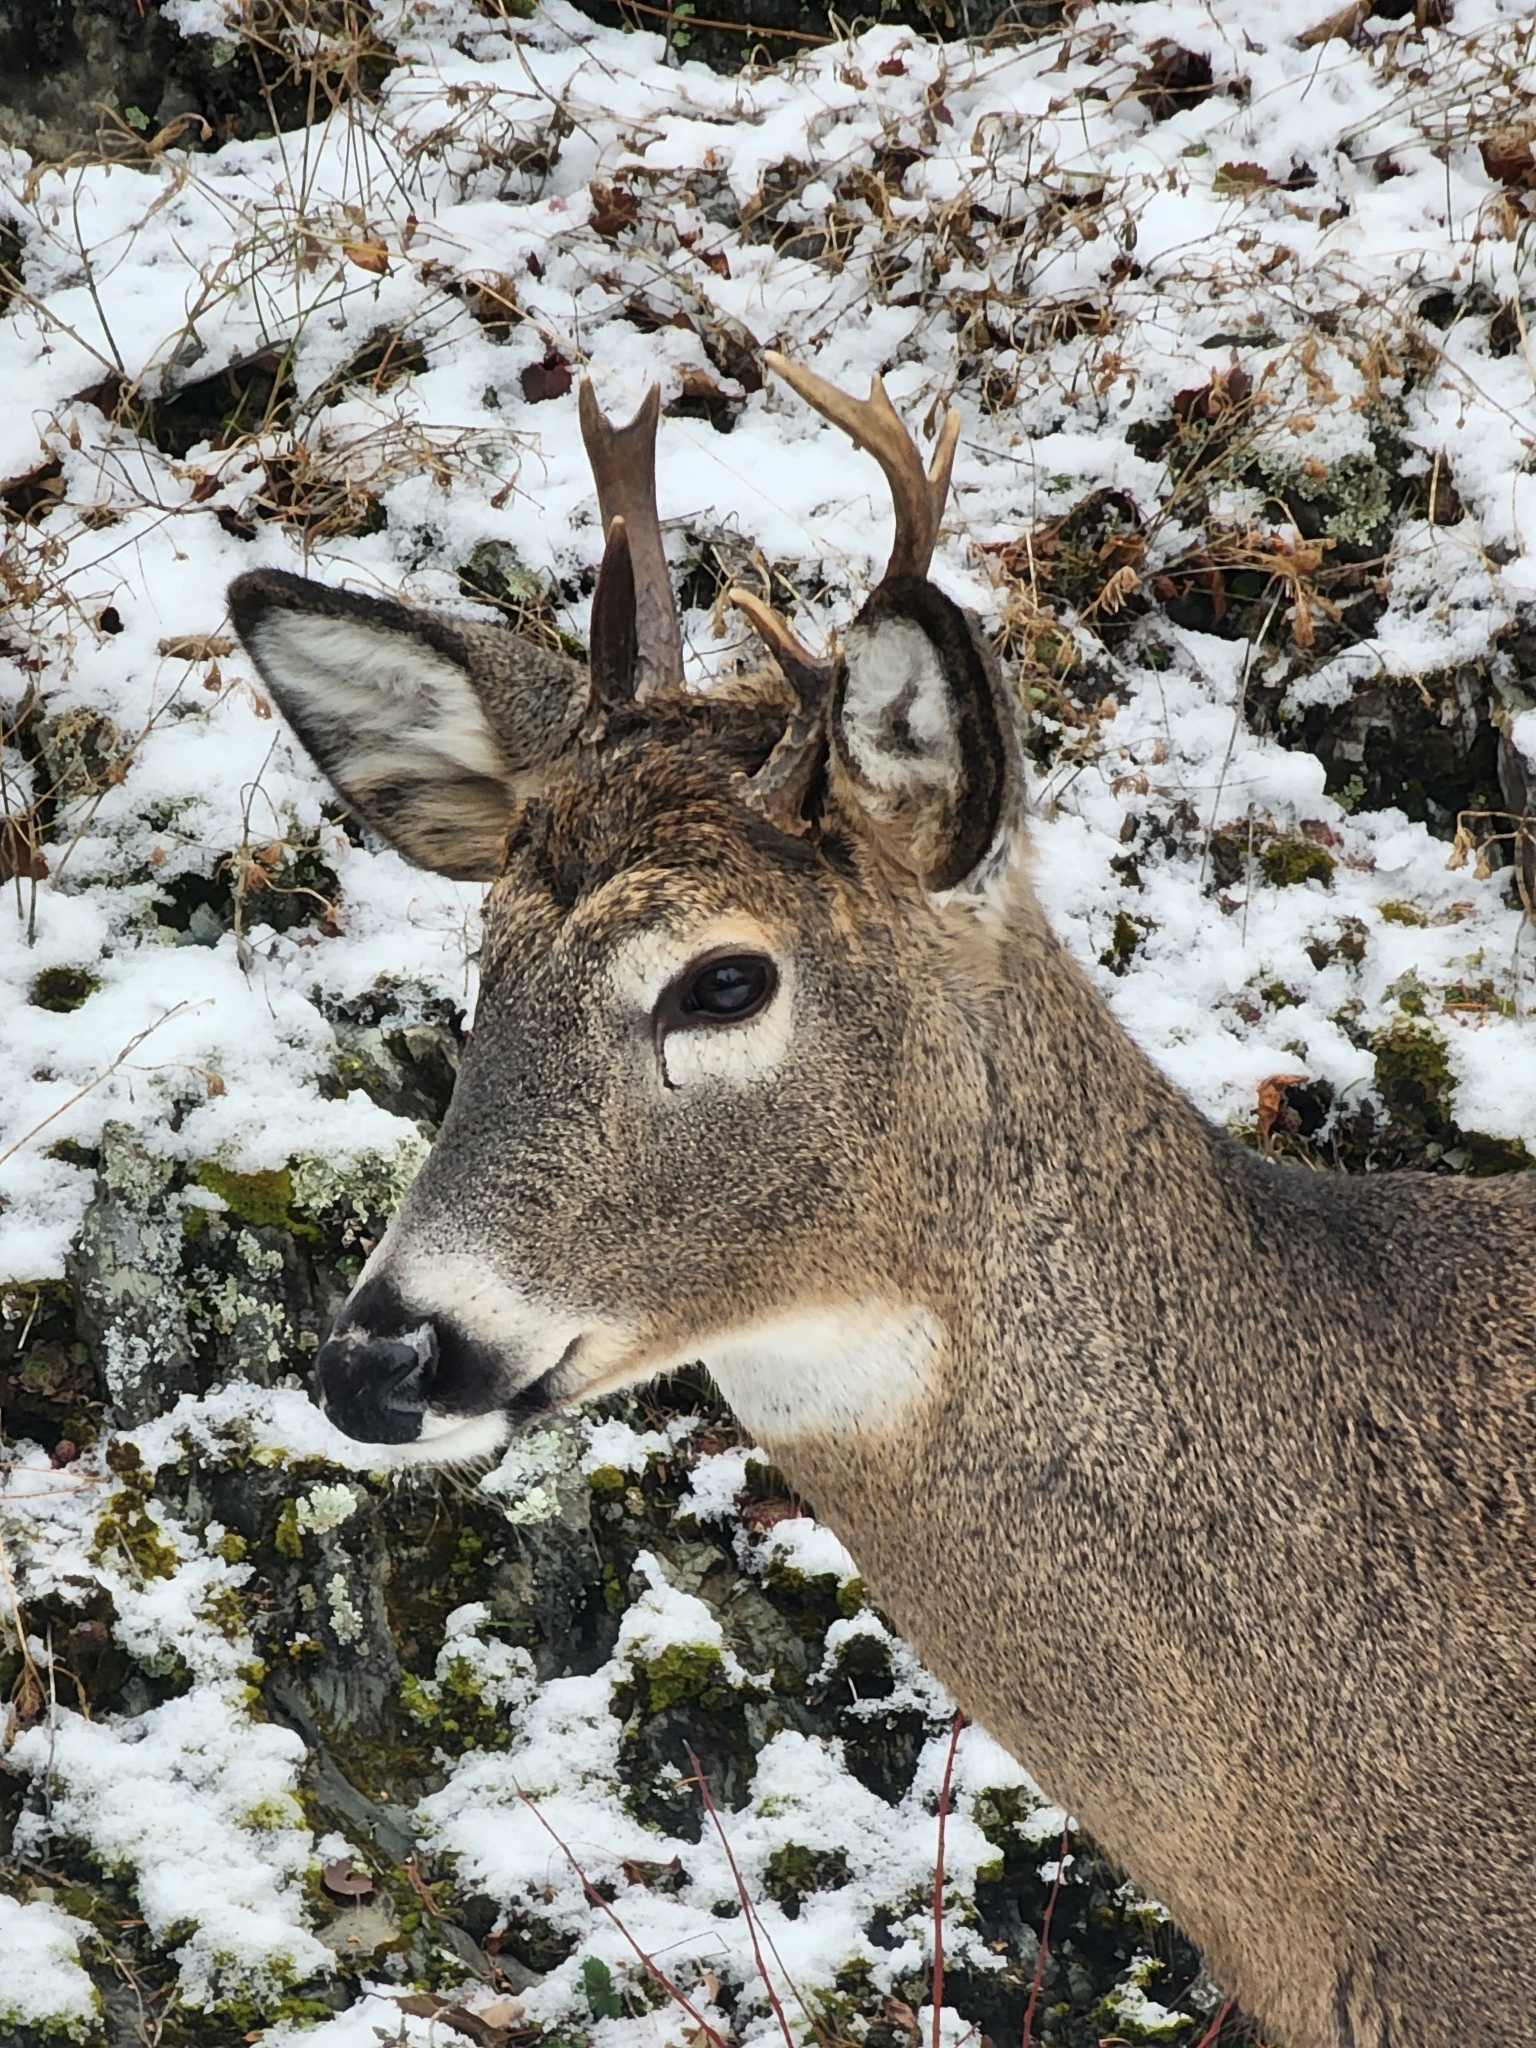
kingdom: Animalia
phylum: Chordata
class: Mammalia
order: Artiodactyla
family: Cervidae
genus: Odocoileus
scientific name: Odocoileus virginianus
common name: White-tailed deer
